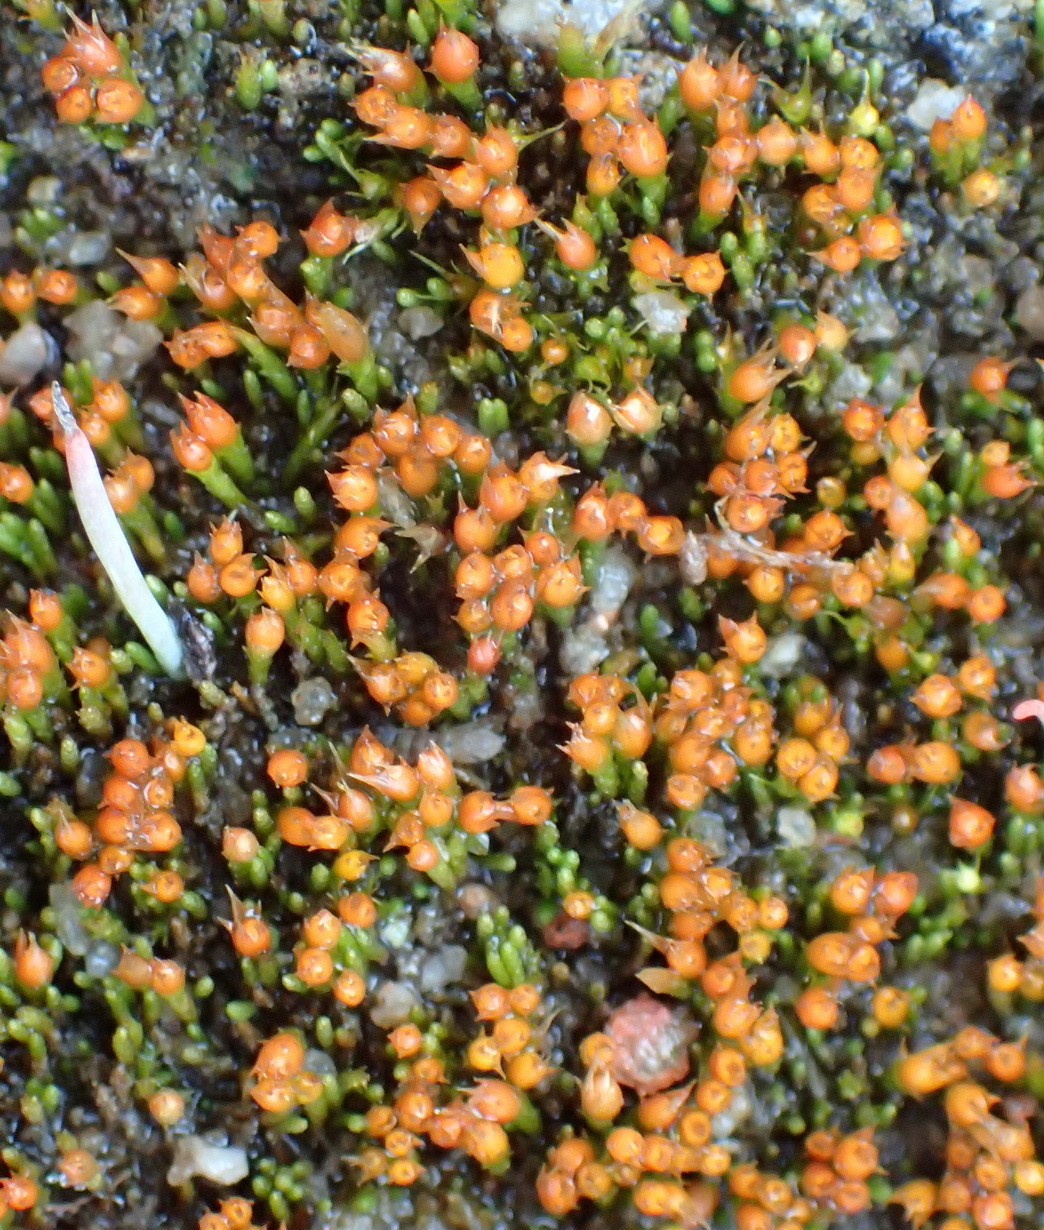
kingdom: Plantae
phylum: Bryophyta
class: Bryopsida
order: Dicranales
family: Dicranellaceae
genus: Cladophascum
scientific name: Cladophascum gymnomitrioides
